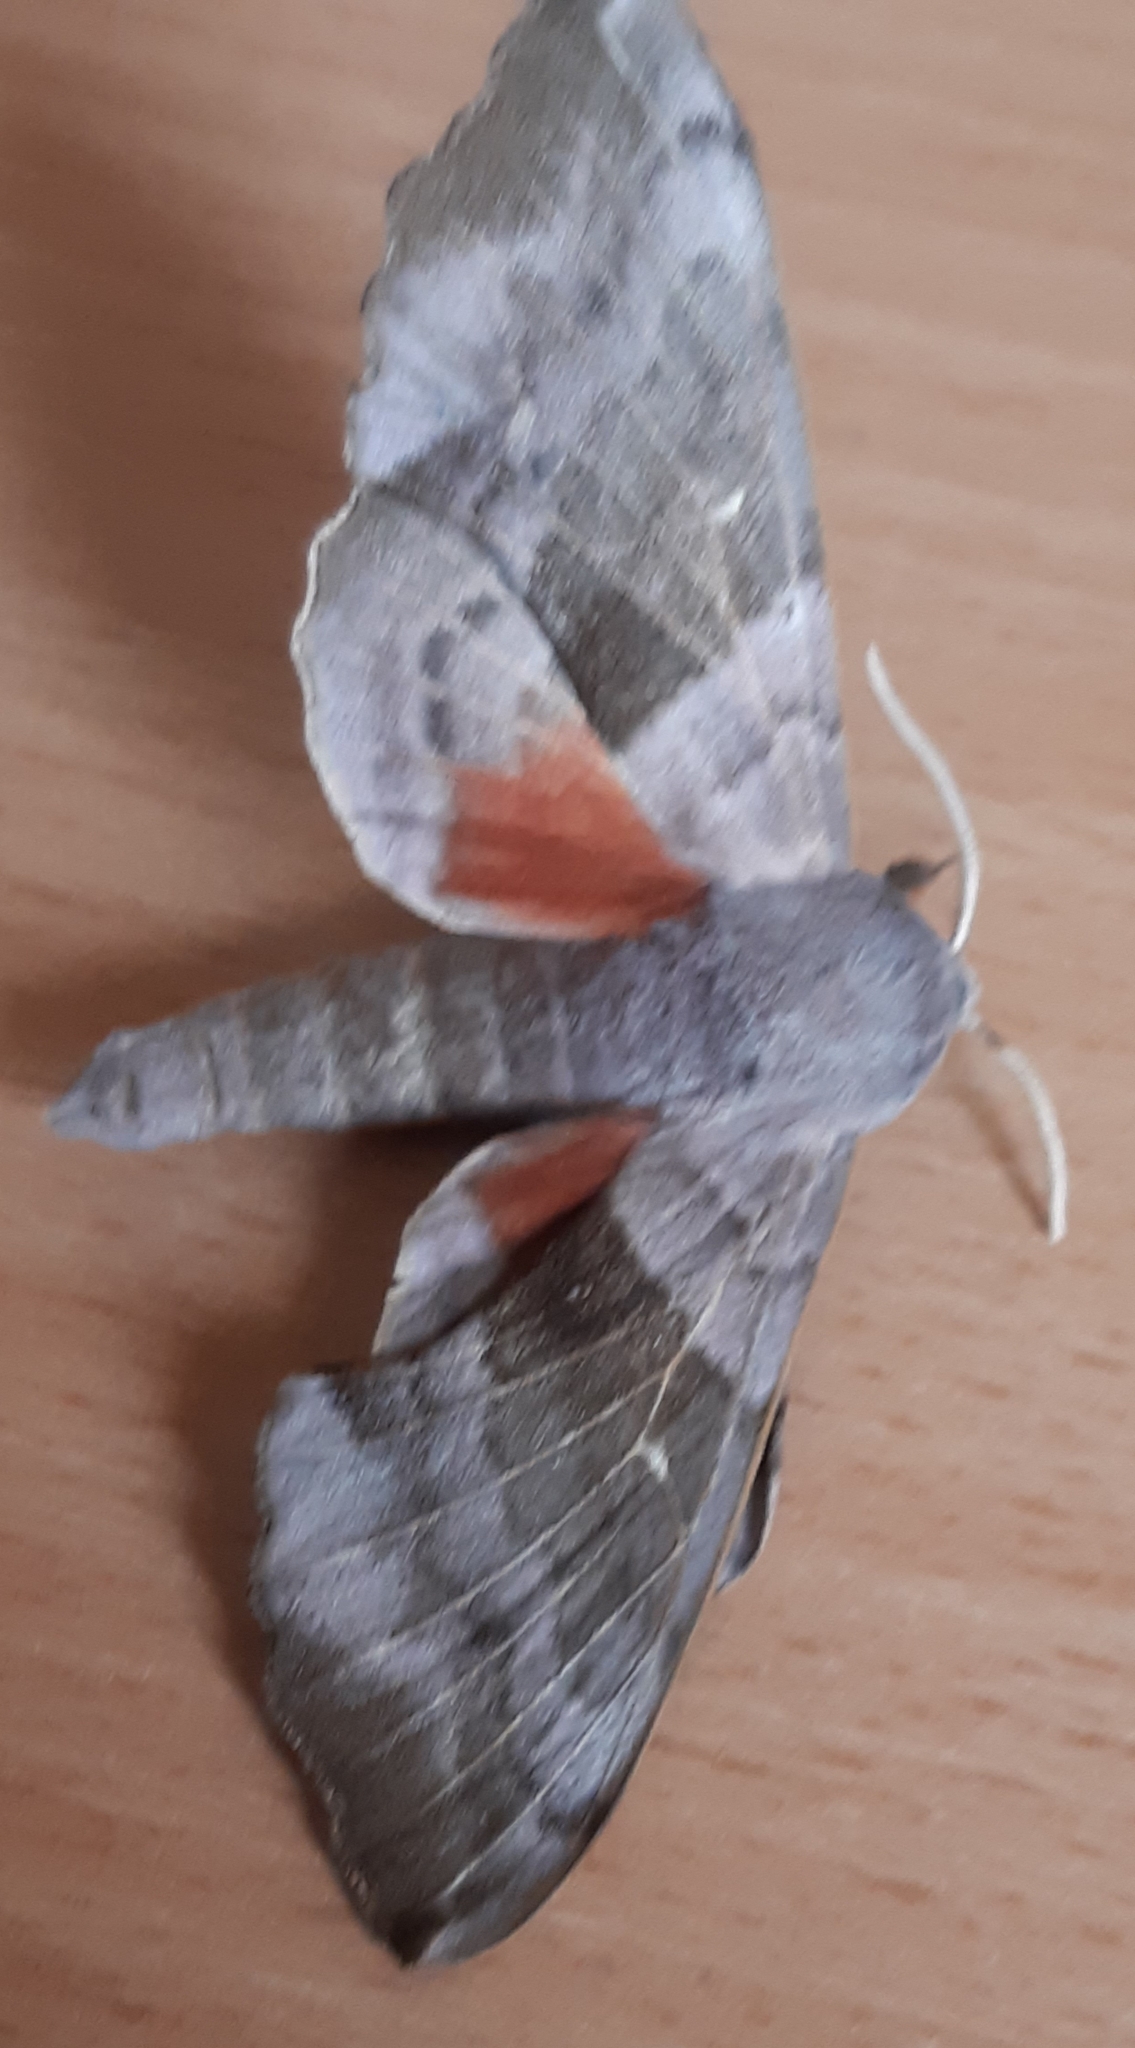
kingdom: Animalia
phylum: Arthropoda
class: Insecta
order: Lepidoptera
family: Sphingidae
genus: Laothoe
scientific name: Laothoe populi
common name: Poplar hawk-moth
